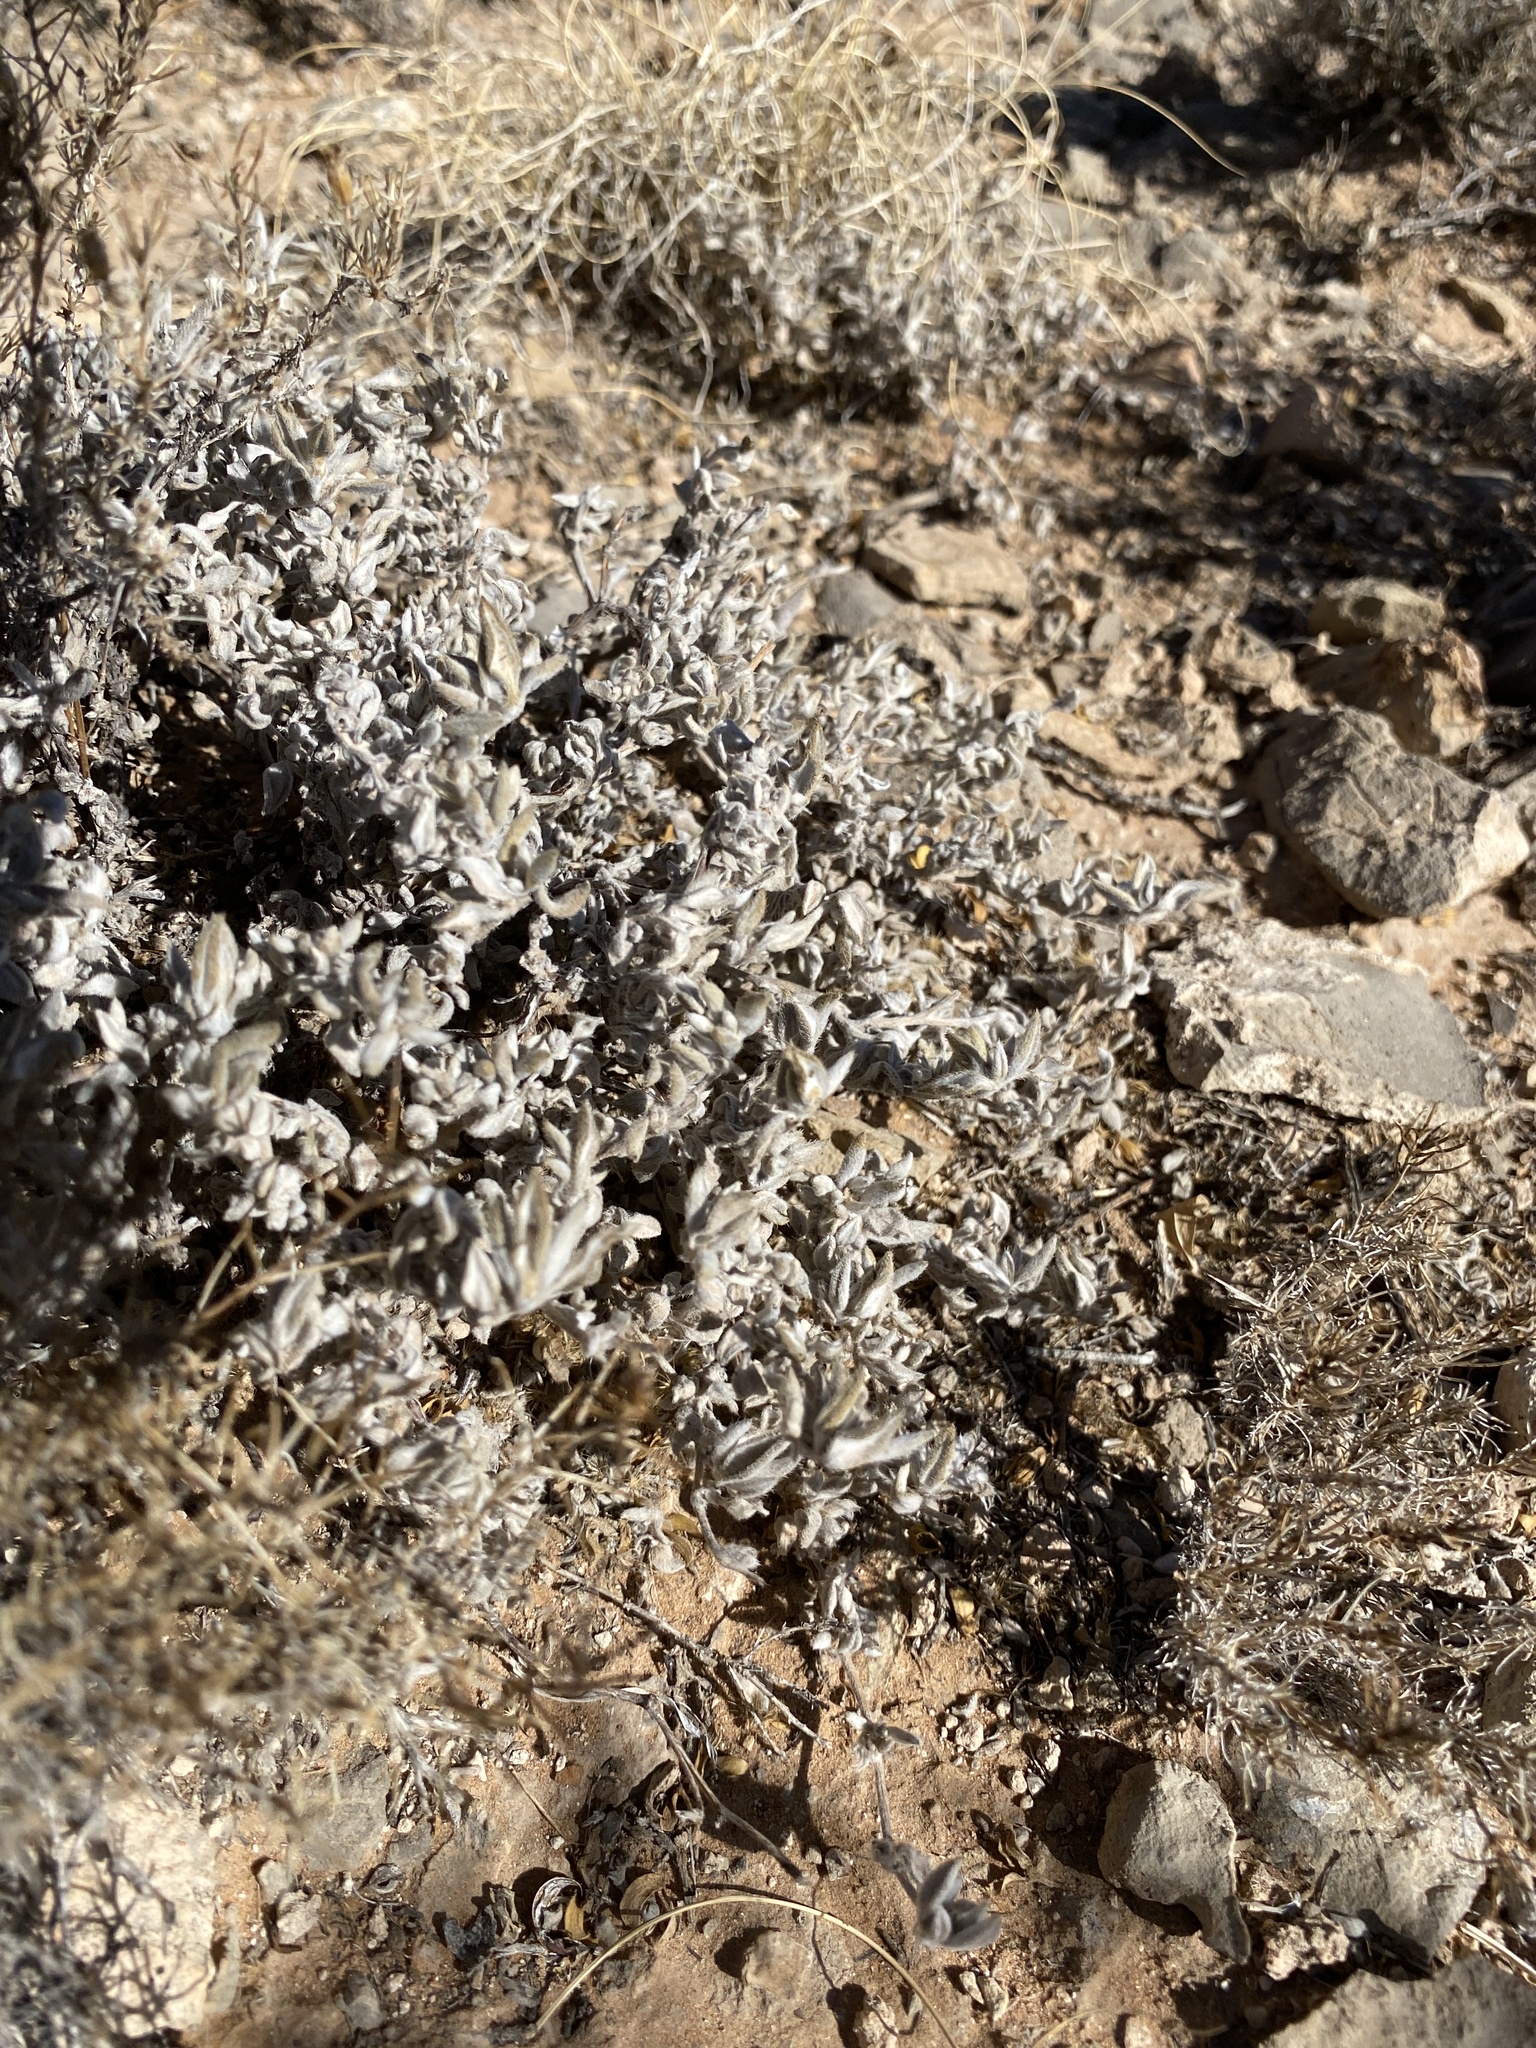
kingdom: Plantae
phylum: Tracheophyta
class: Magnoliopsida
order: Boraginales
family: Ehretiaceae
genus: Tiquilia
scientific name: Tiquilia canescens
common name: Hairy tiquilia
